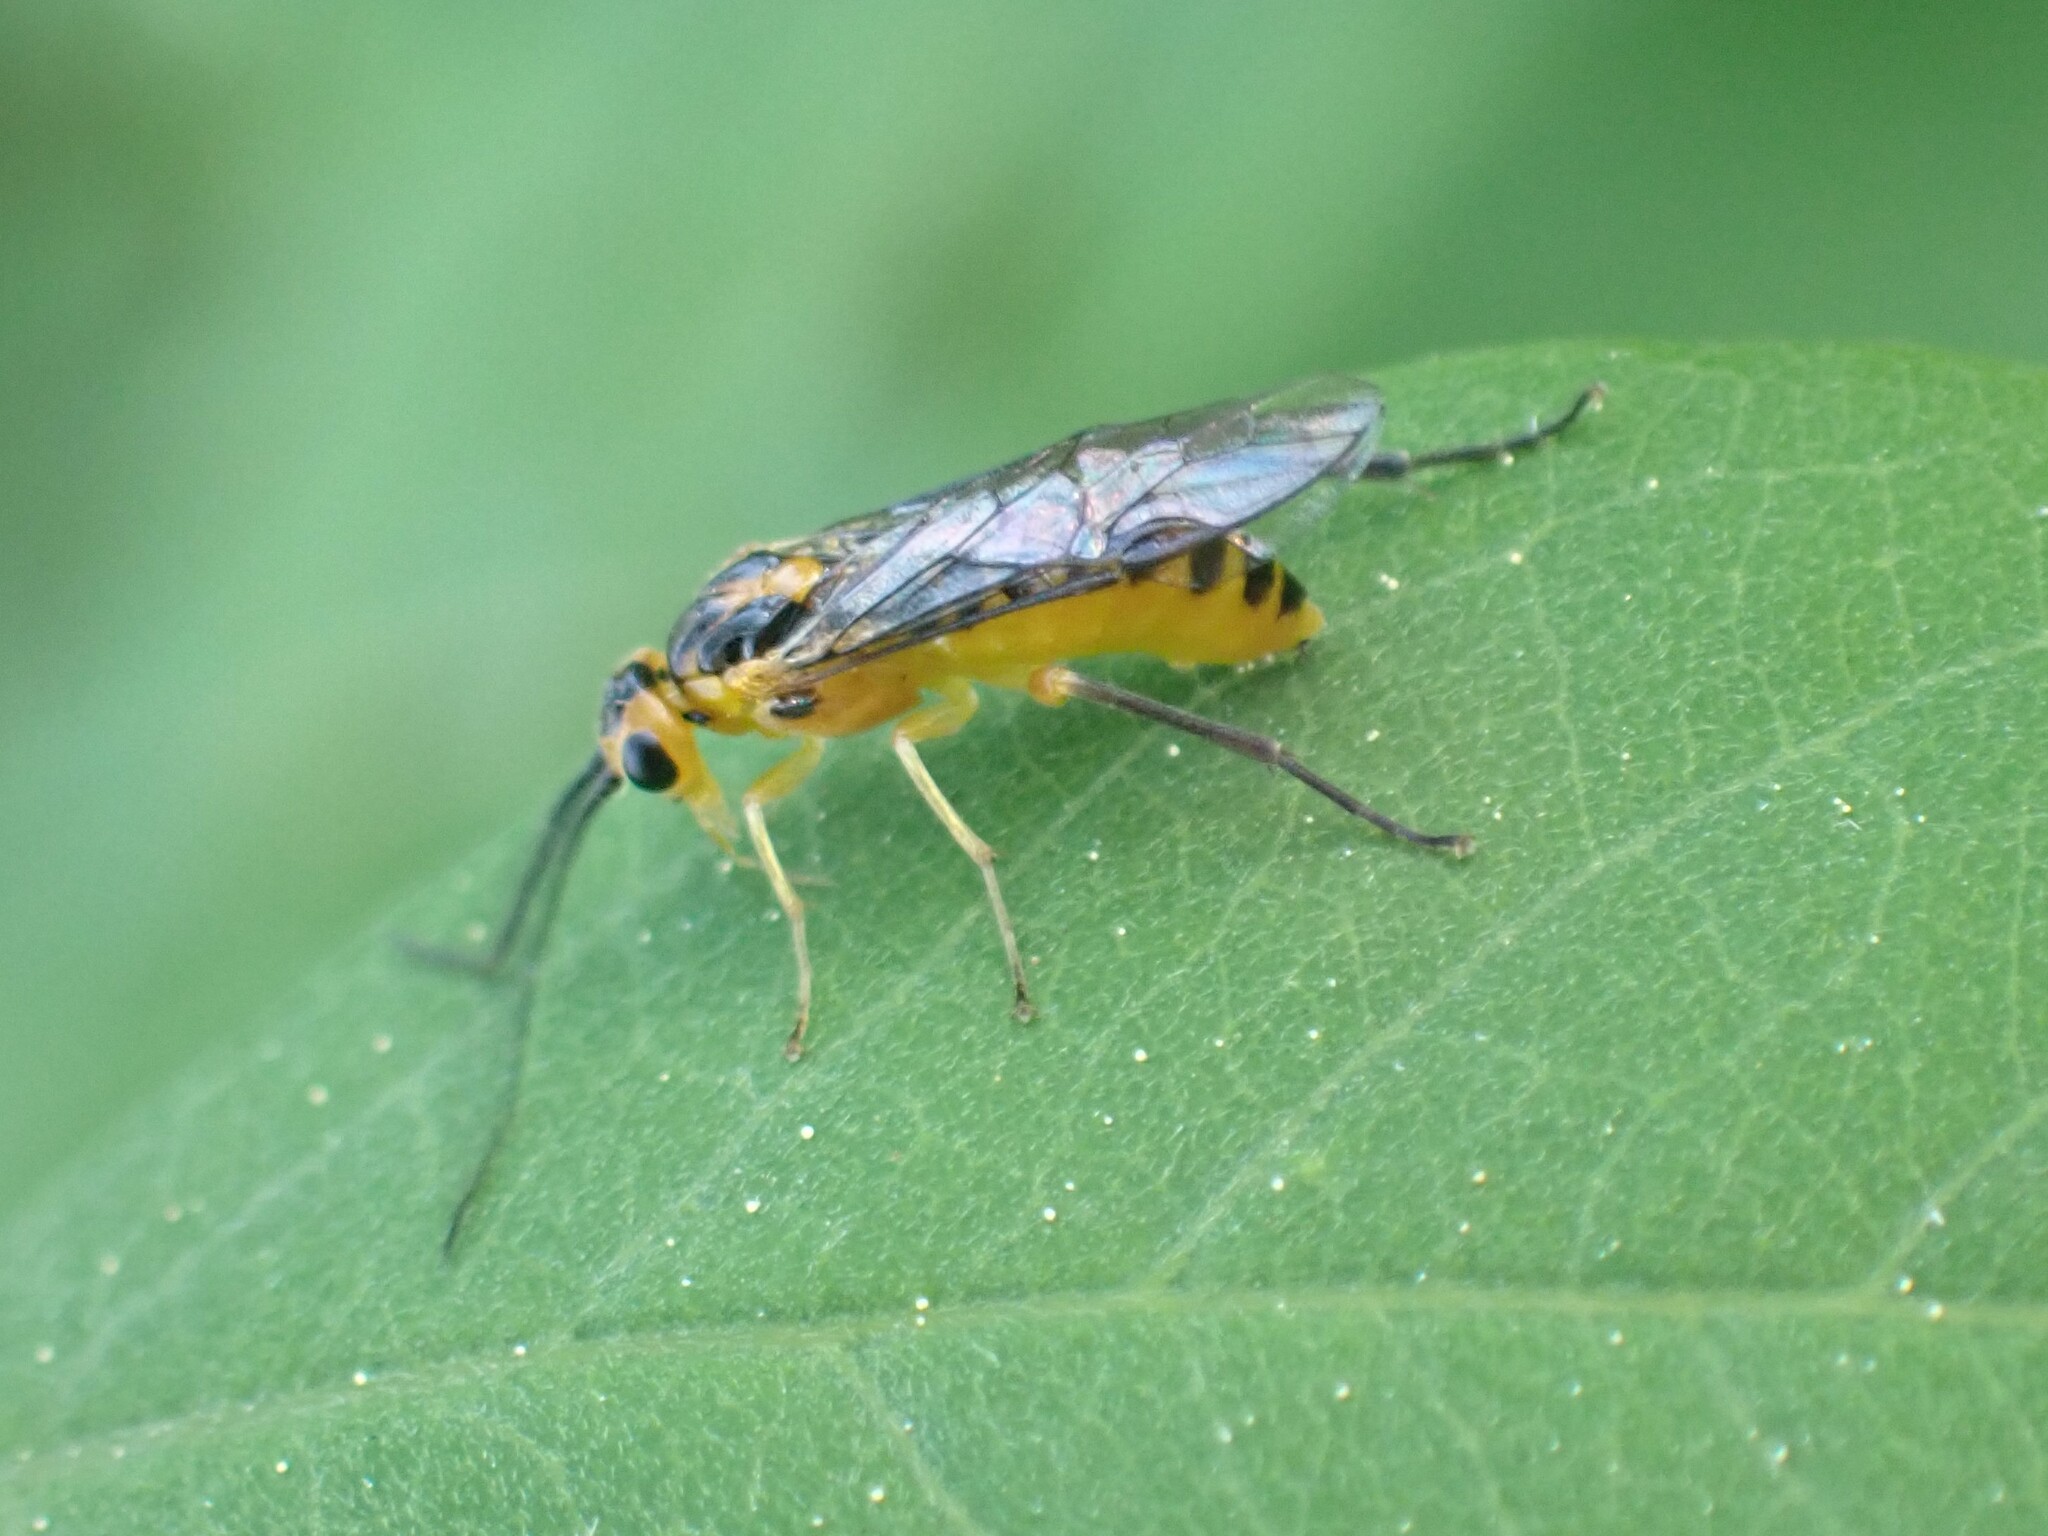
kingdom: Animalia
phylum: Arthropoda
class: Insecta
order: Hymenoptera
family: Tenthredinidae
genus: Euura
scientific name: Euura tibialis
